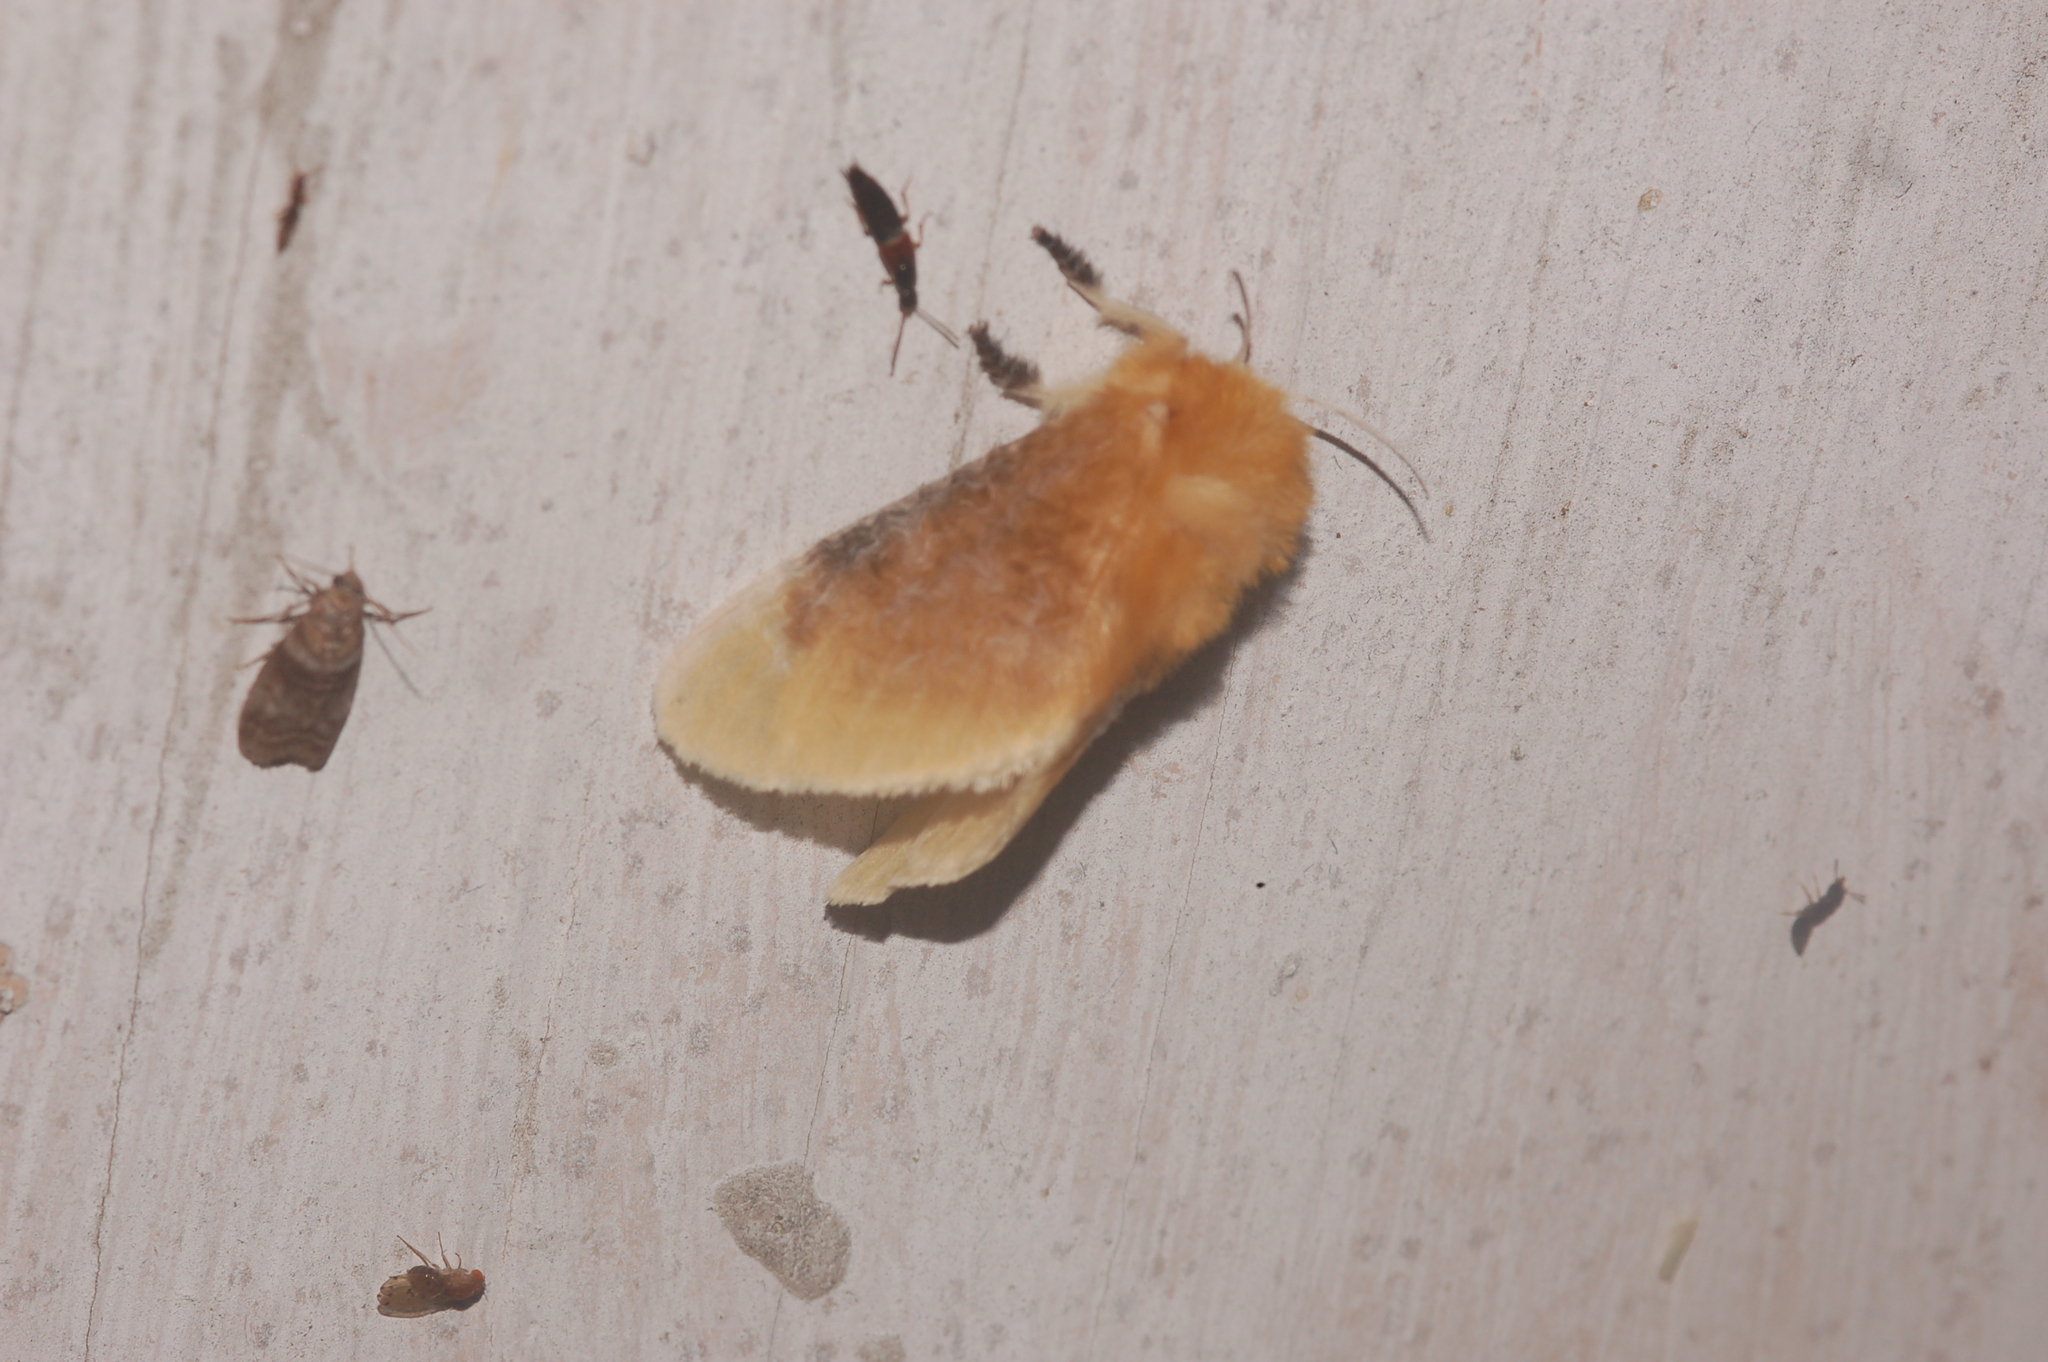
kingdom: Animalia
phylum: Arthropoda
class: Insecta
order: Lepidoptera
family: Megalopygidae
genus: Megalopyge
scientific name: Megalopyge opercularis
